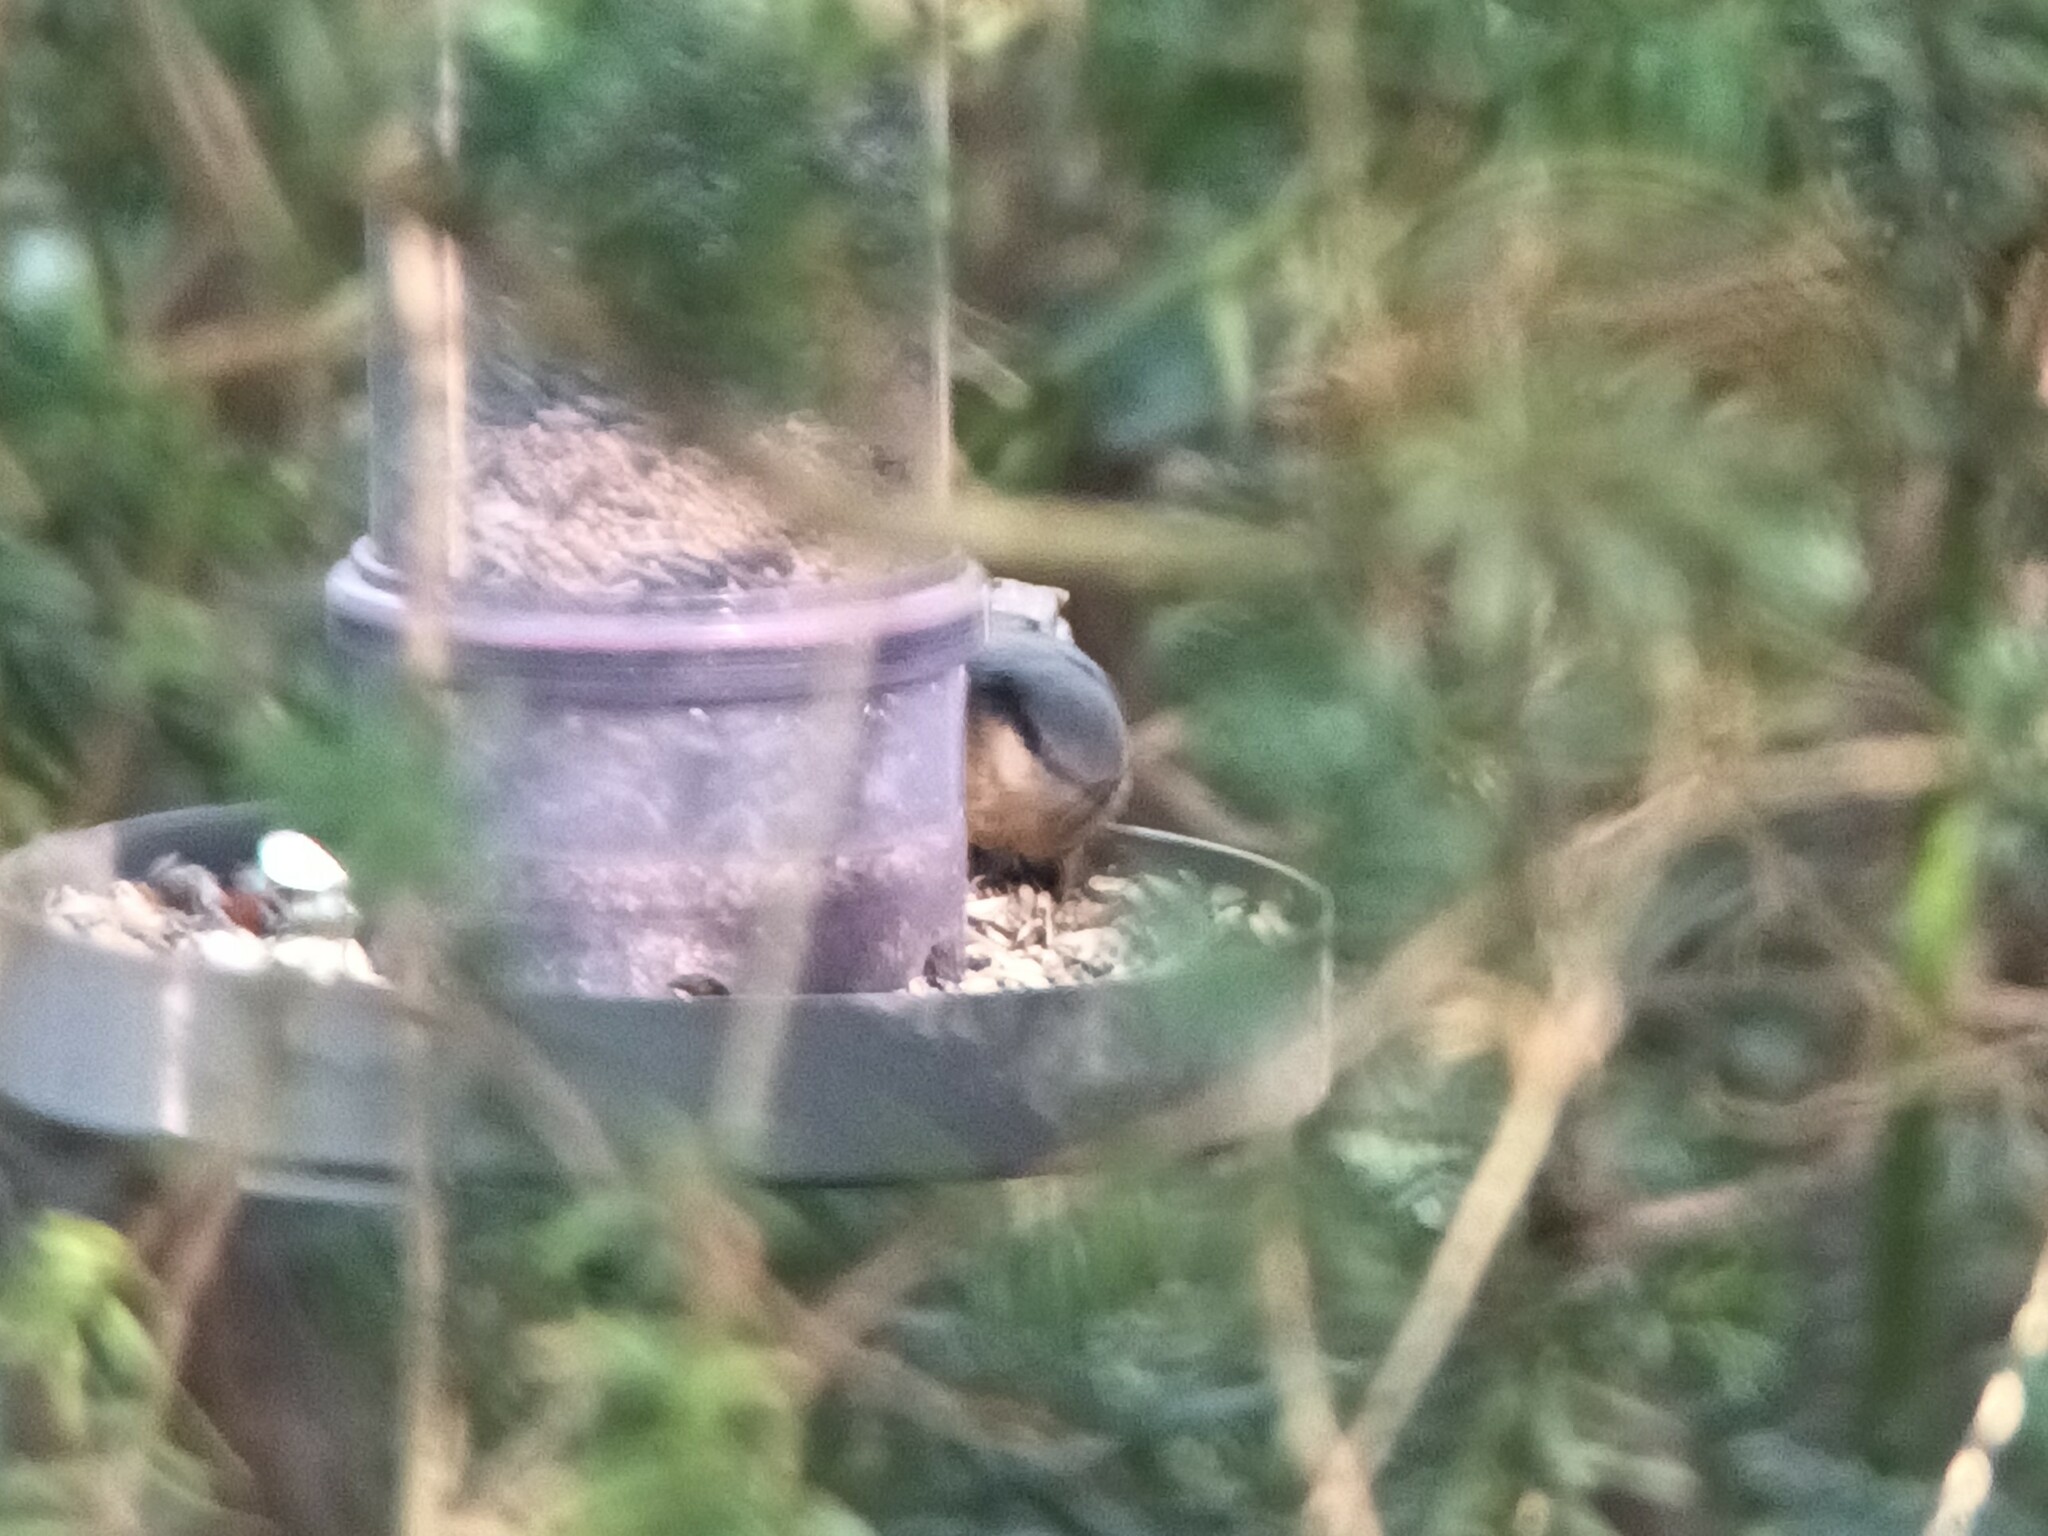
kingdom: Animalia
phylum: Chordata
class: Aves
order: Passeriformes
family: Sittidae
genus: Sitta
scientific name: Sitta europaea
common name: Eurasian nuthatch
